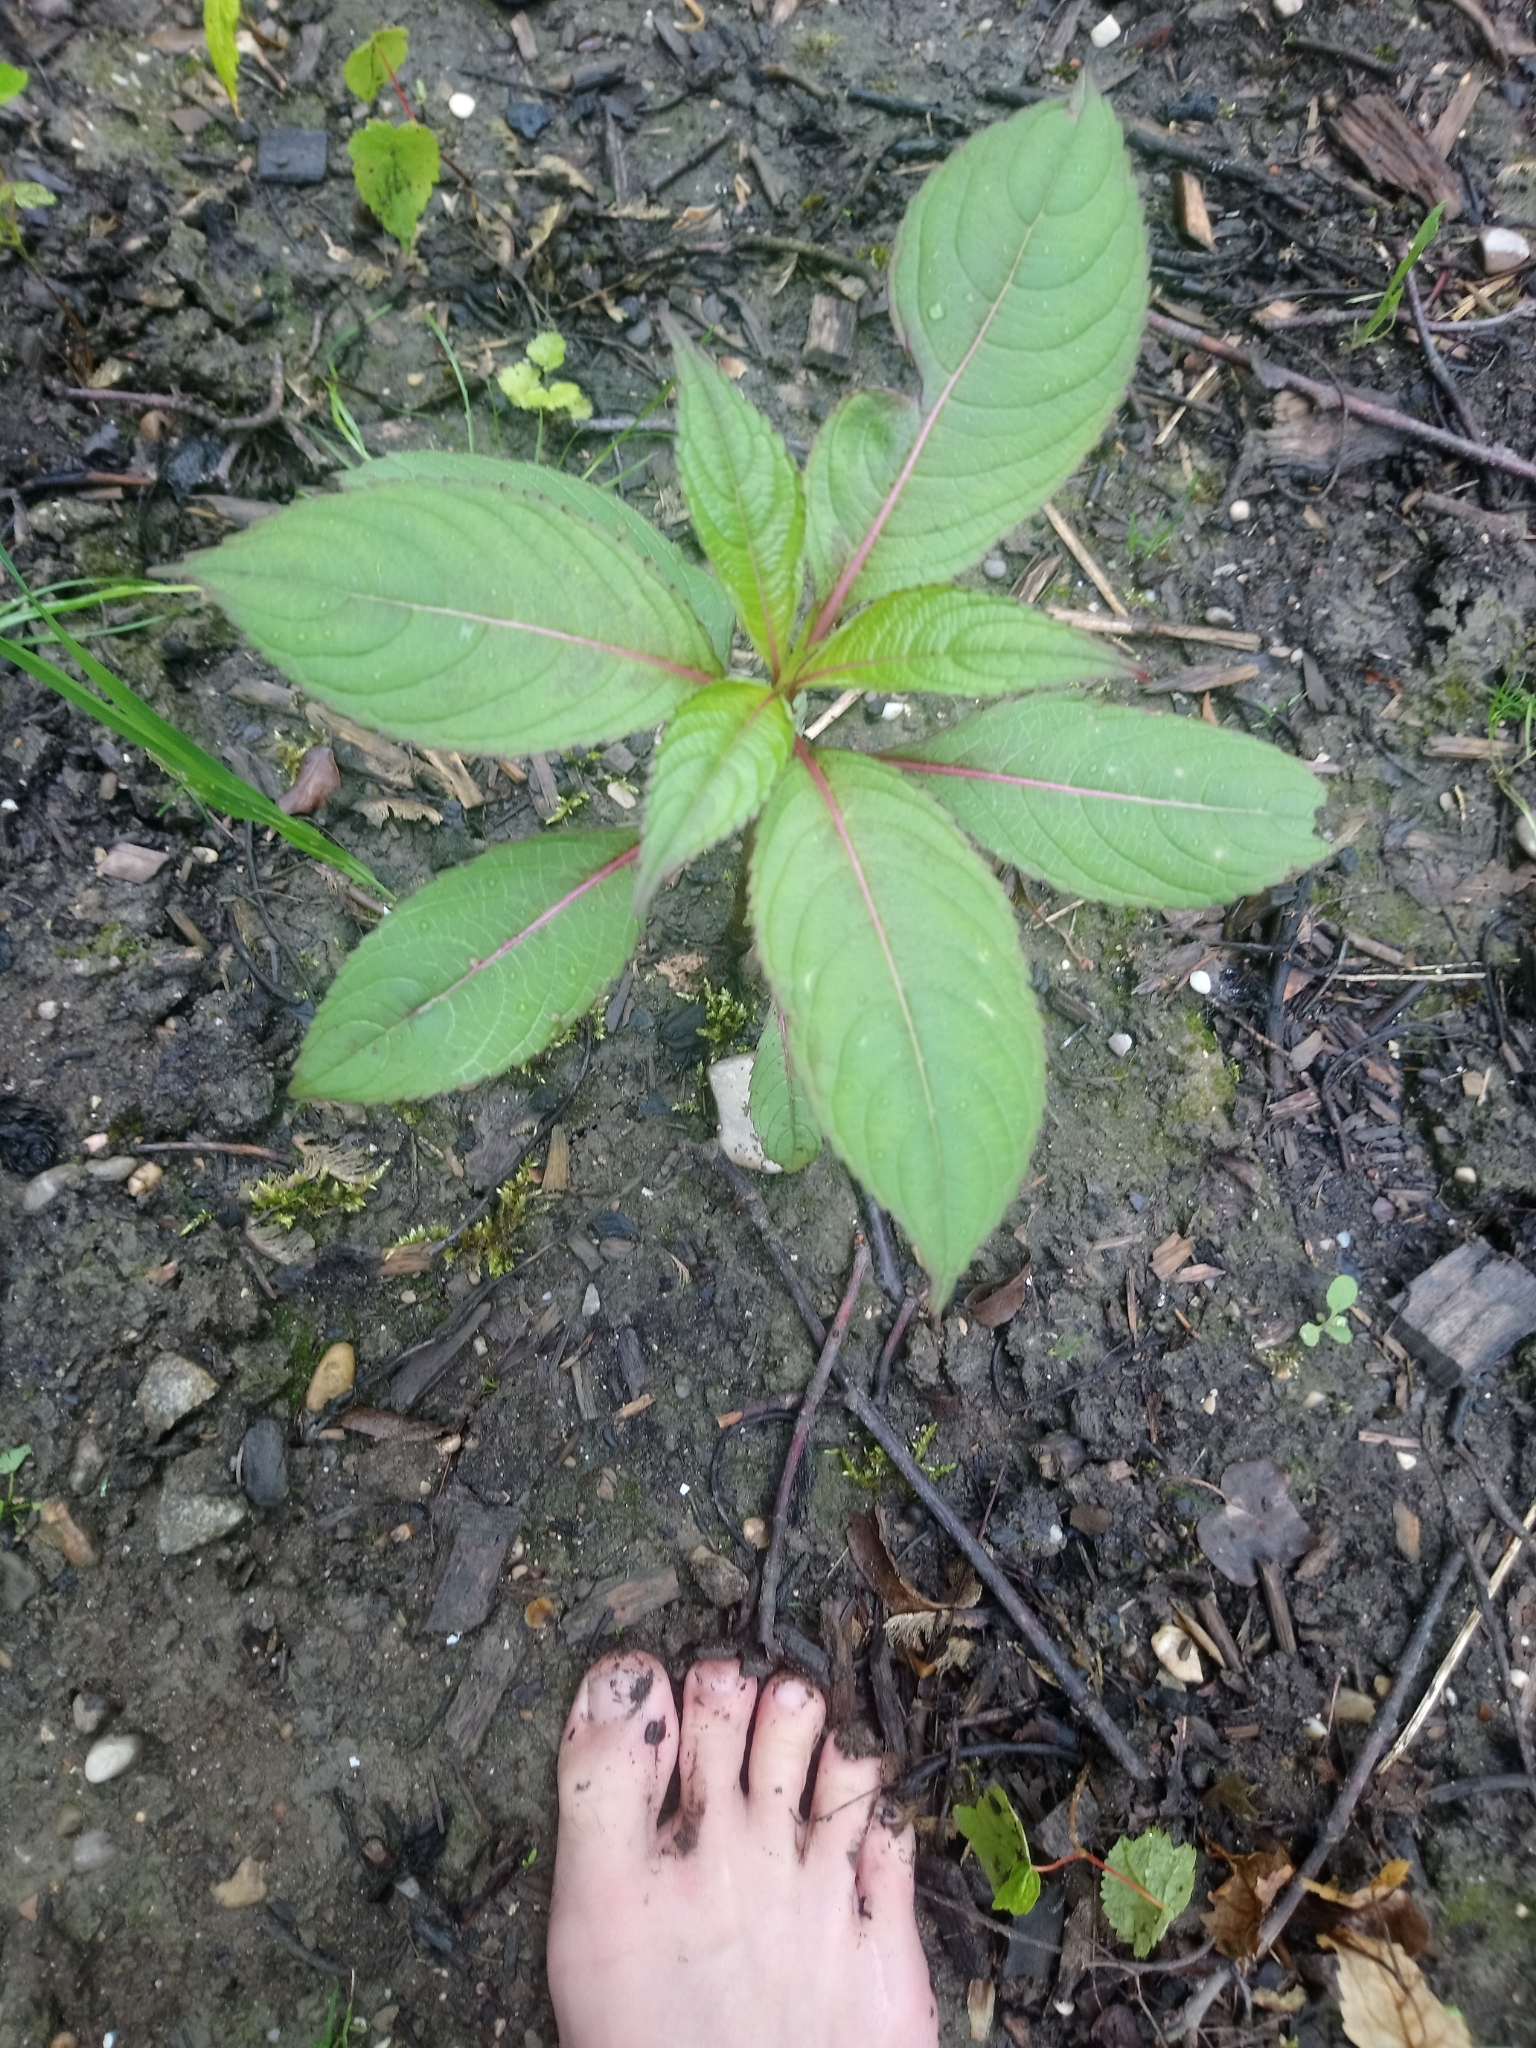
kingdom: Plantae
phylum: Tracheophyta
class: Magnoliopsida
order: Ericales
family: Balsaminaceae
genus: Impatiens
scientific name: Impatiens glandulifera
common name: Himalayan balsam
